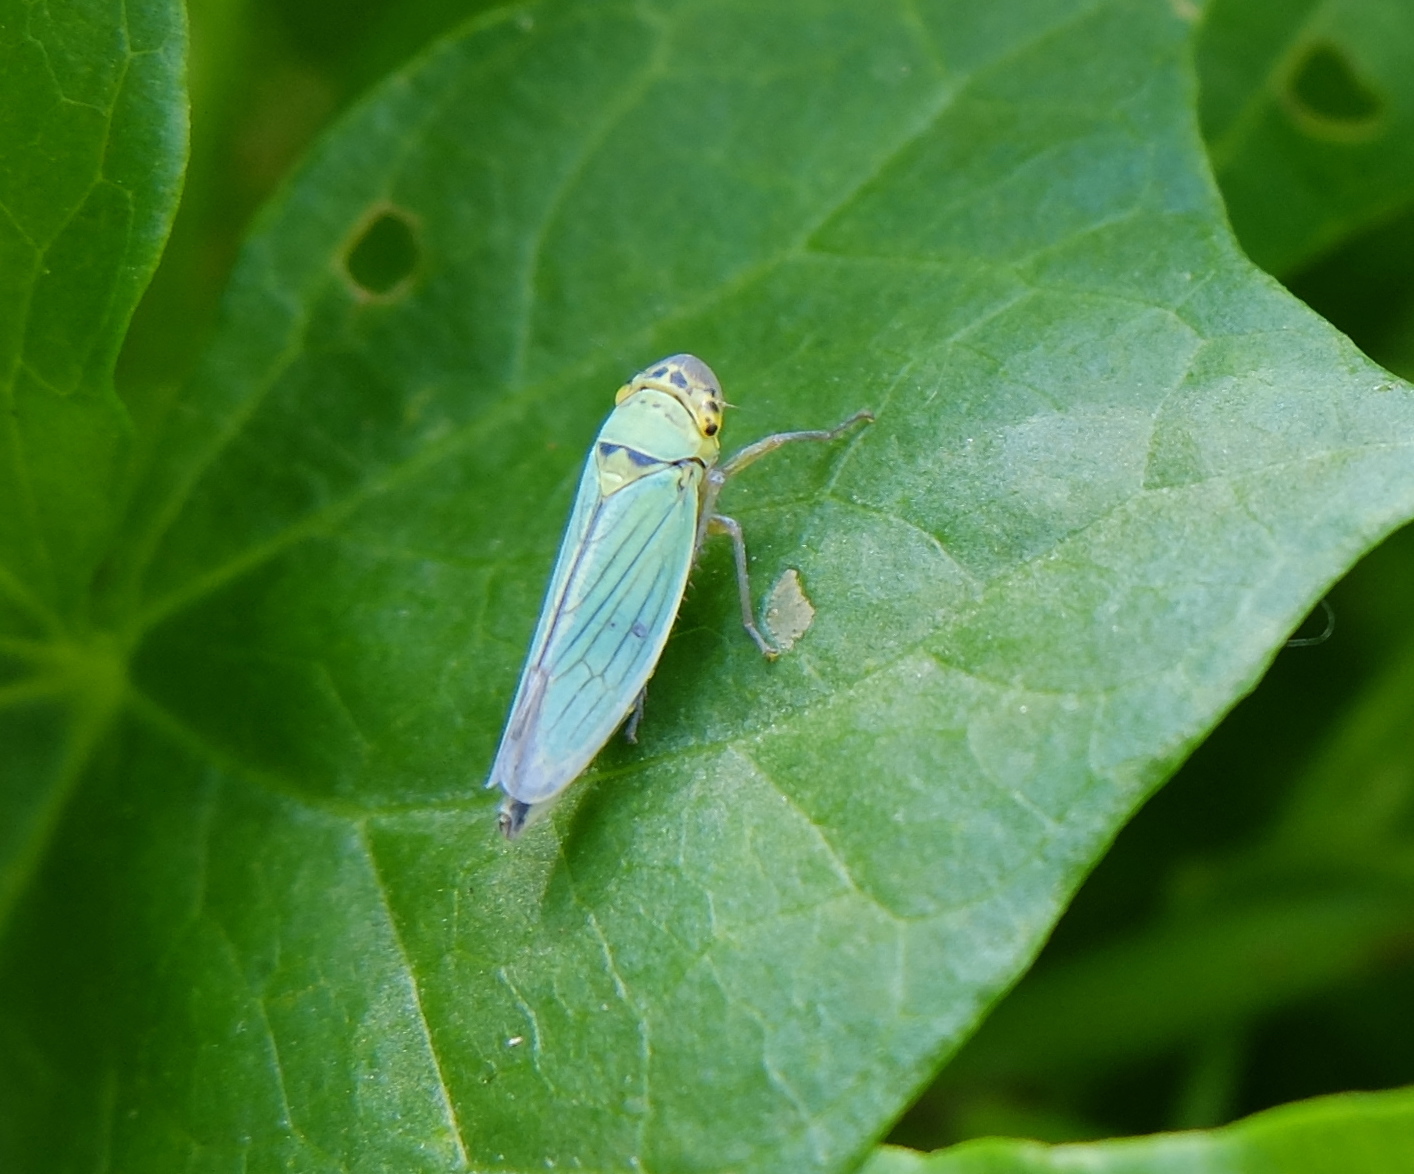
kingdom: Animalia
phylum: Arthropoda
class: Insecta
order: Hemiptera
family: Cicadellidae
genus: Cicadella
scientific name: Cicadella viridis
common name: Leafhopper
